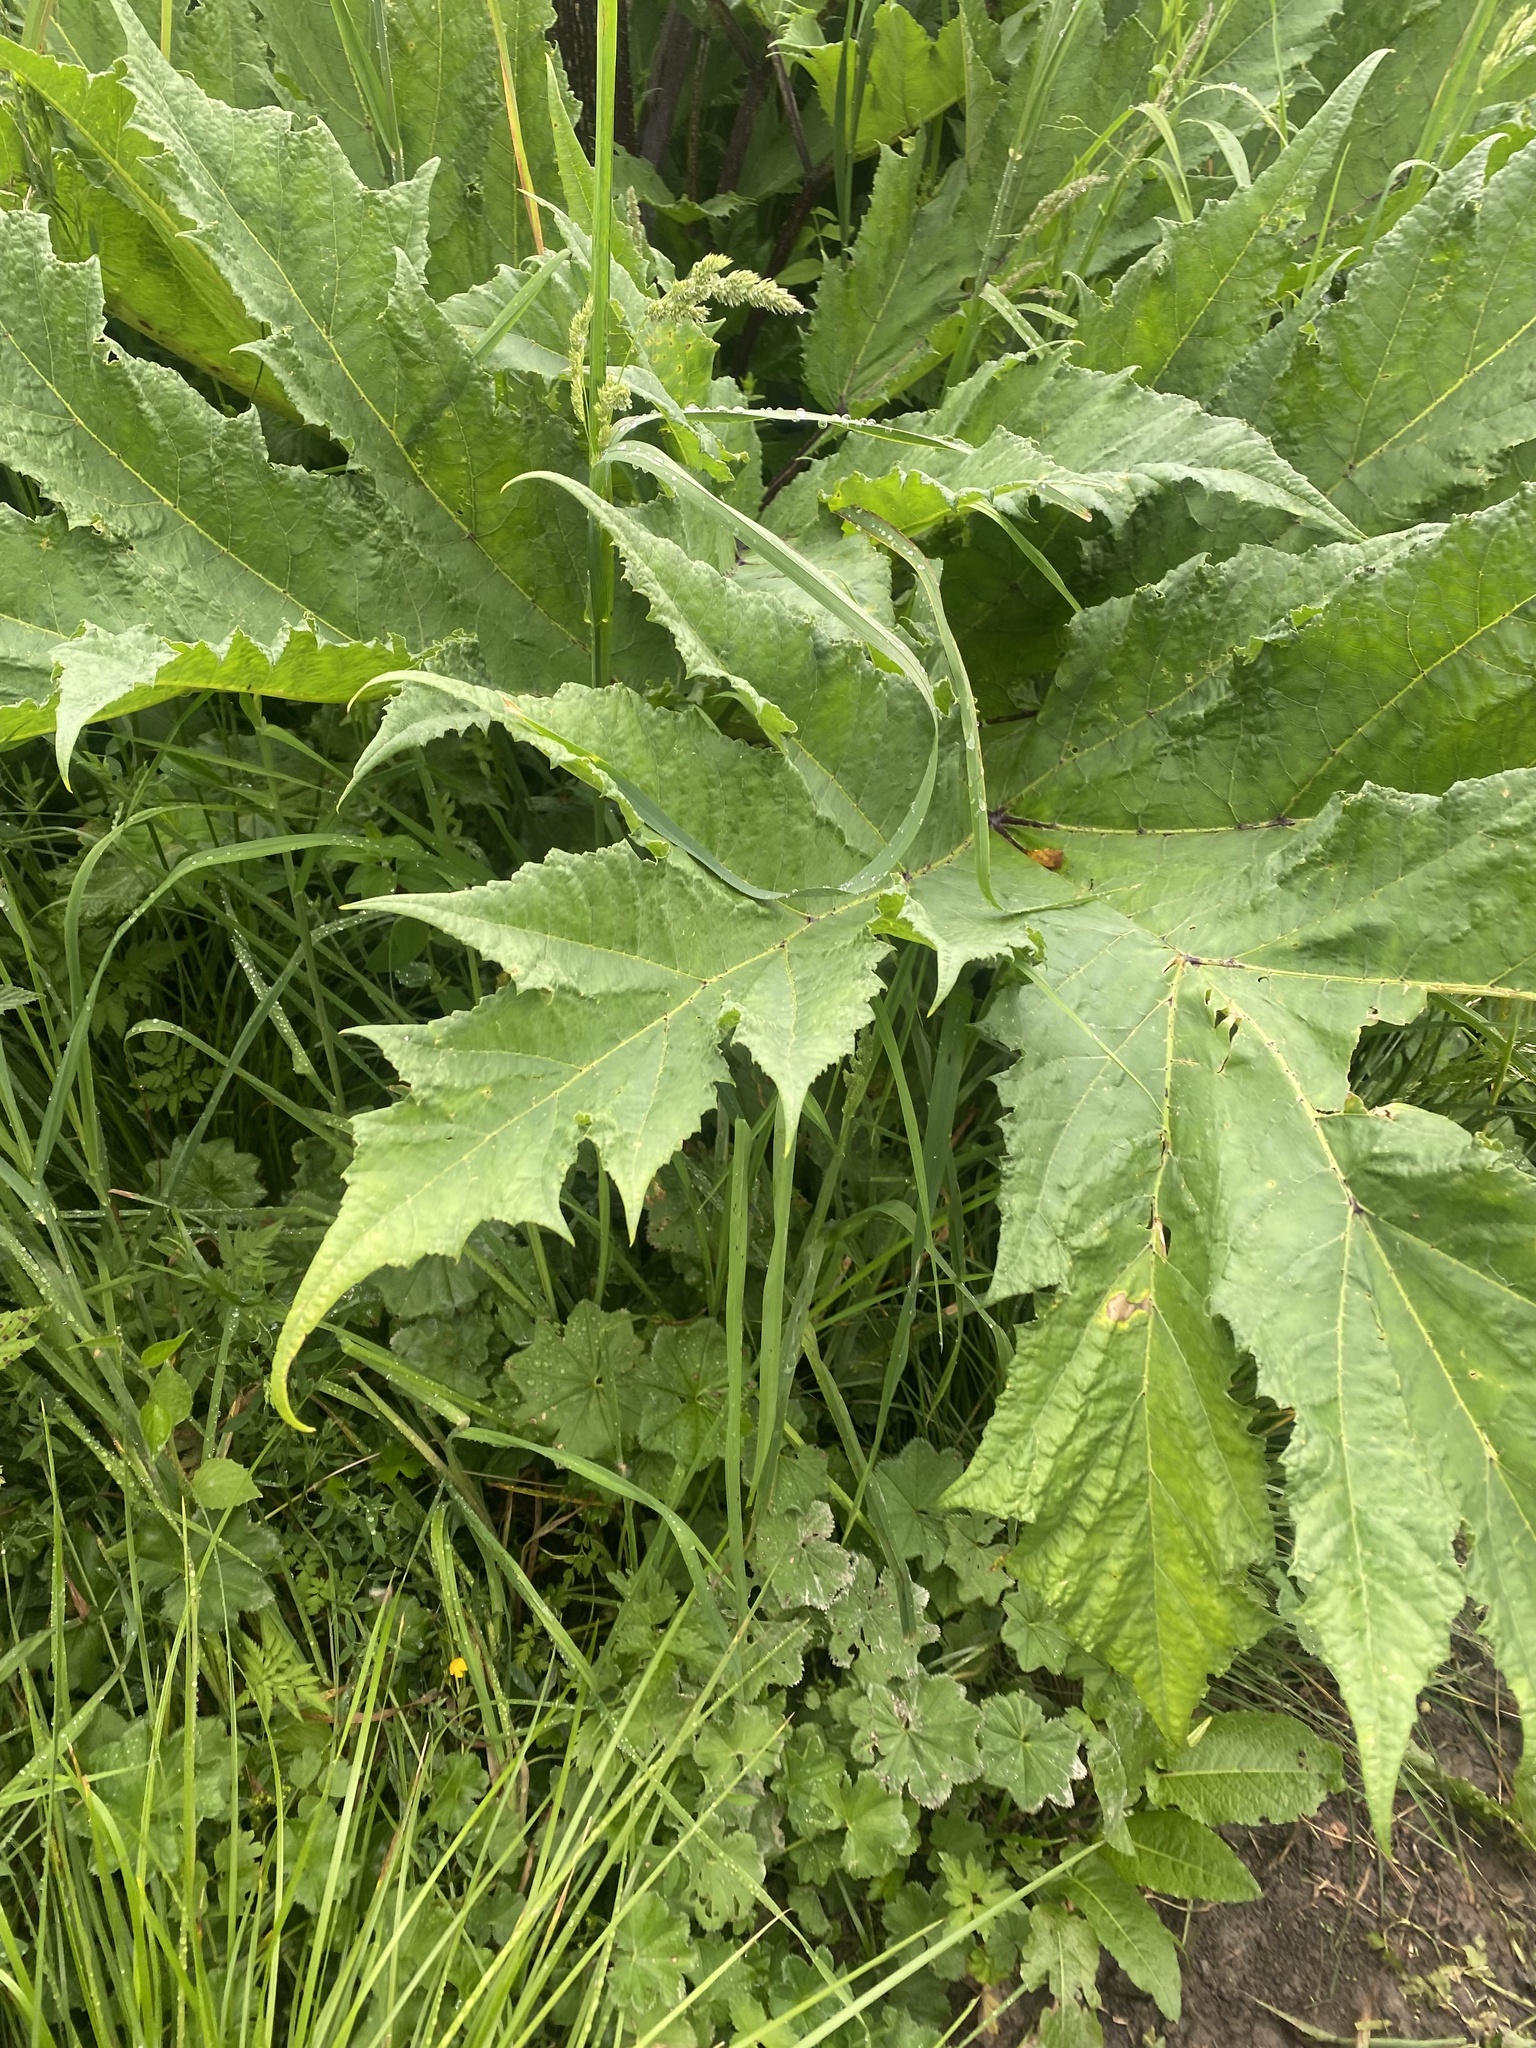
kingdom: Plantae
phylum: Tracheophyta
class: Magnoliopsida
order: Apiales
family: Apiaceae
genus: Heracleum
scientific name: Heracleum mantegazzianum
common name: Giant hogweed
